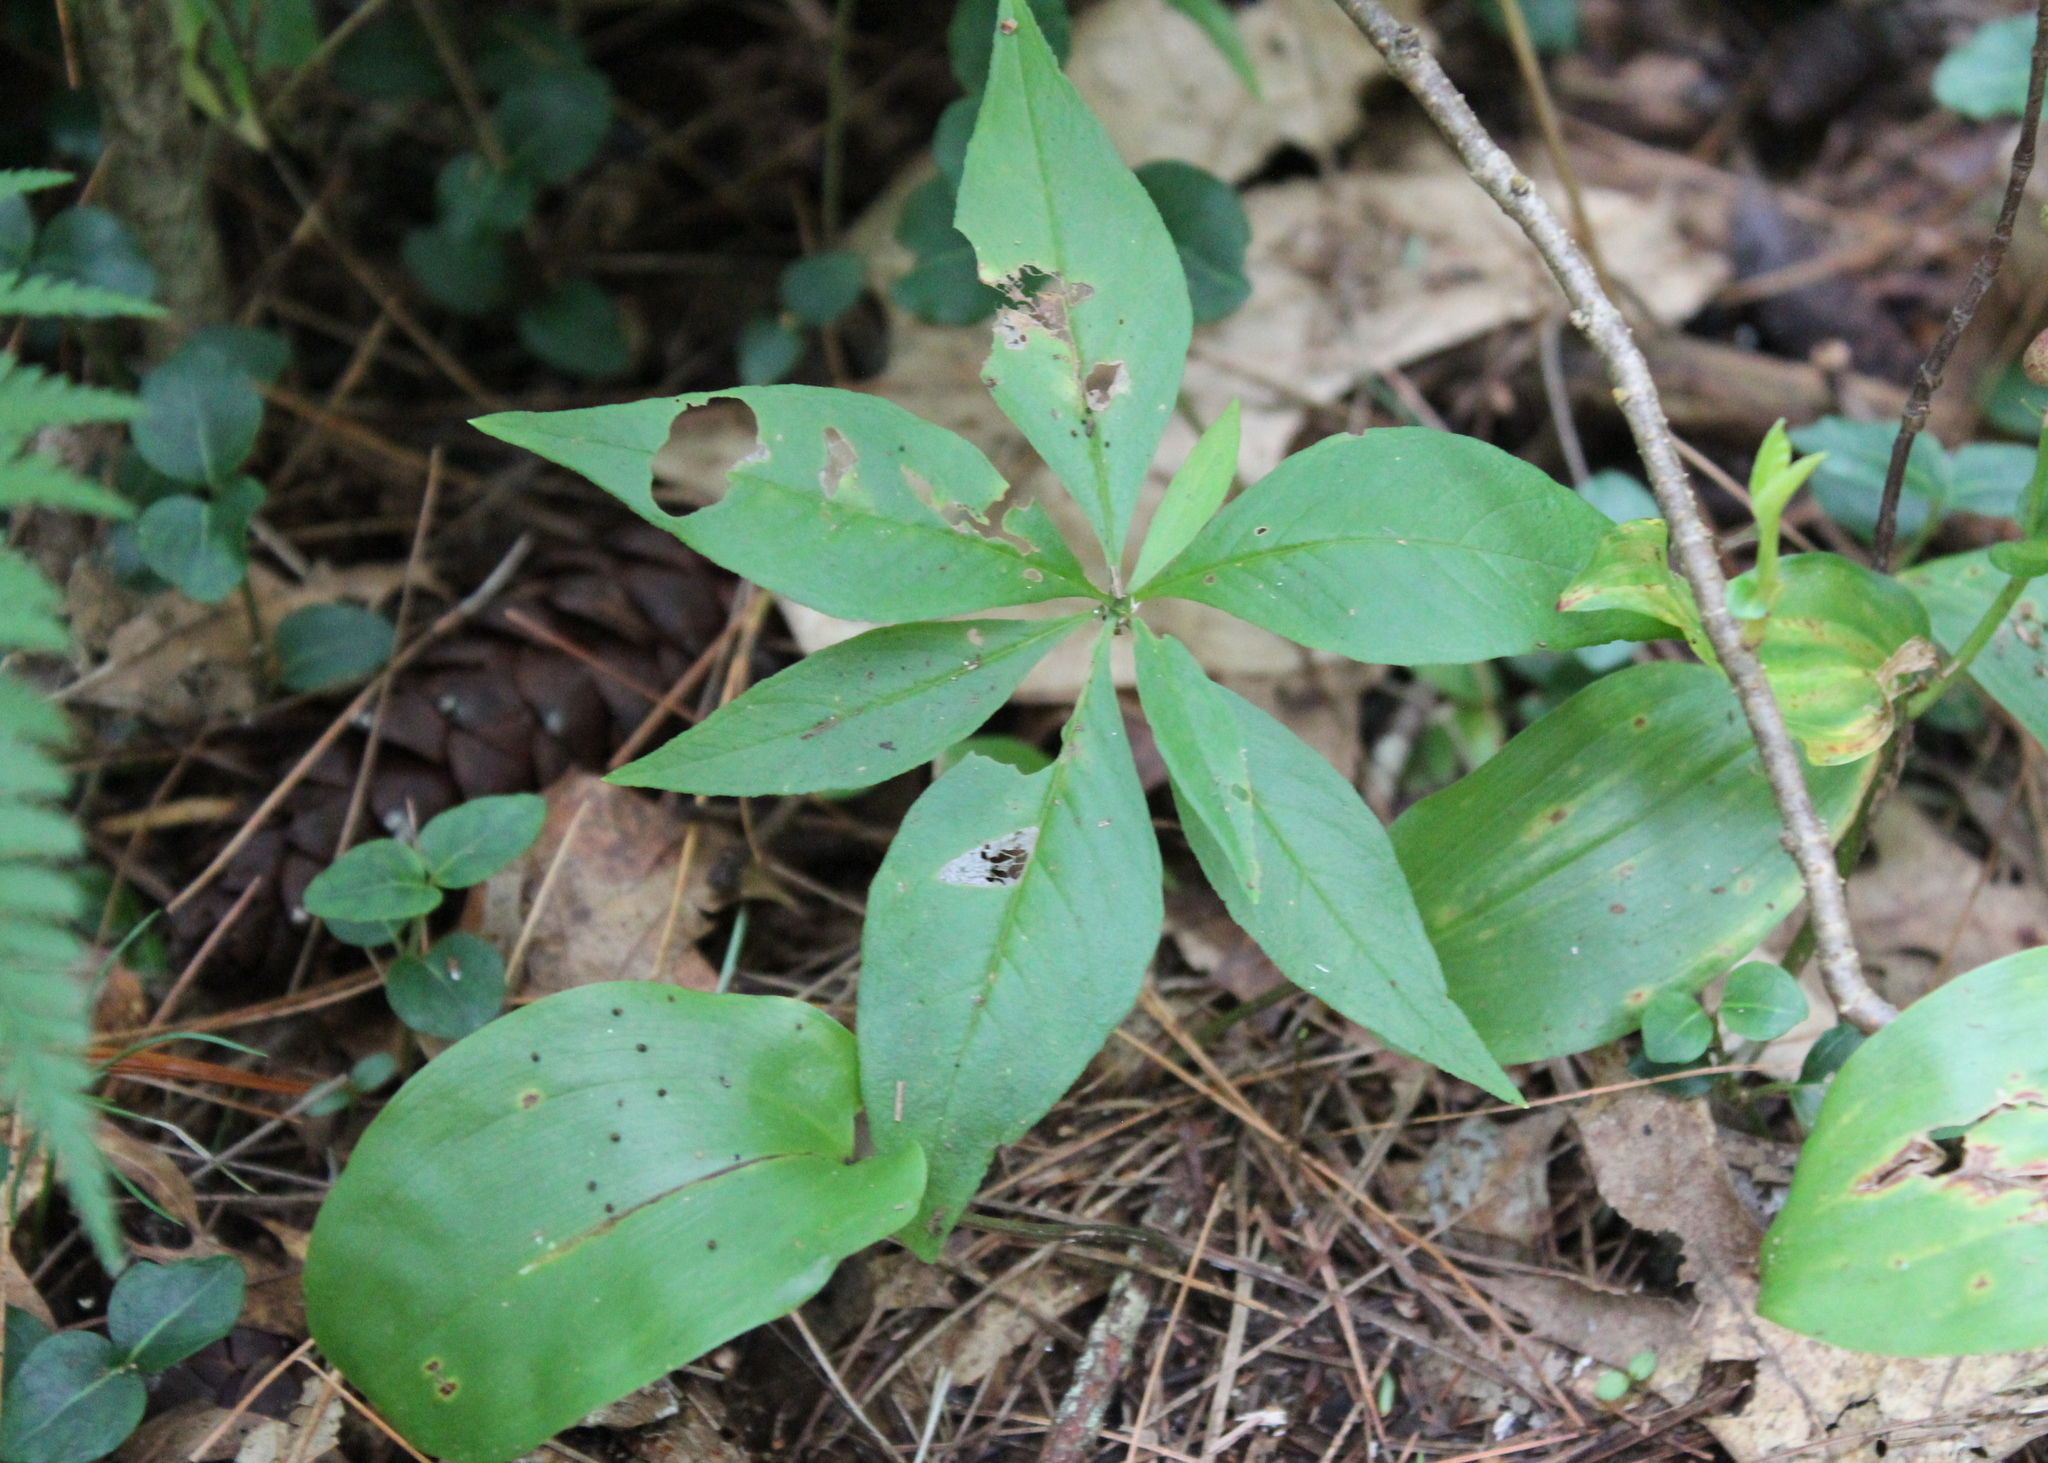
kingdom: Plantae
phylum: Tracheophyta
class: Magnoliopsida
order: Ericales
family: Primulaceae
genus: Lysimachia
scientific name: Lysimachia borealis
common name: American starflower
